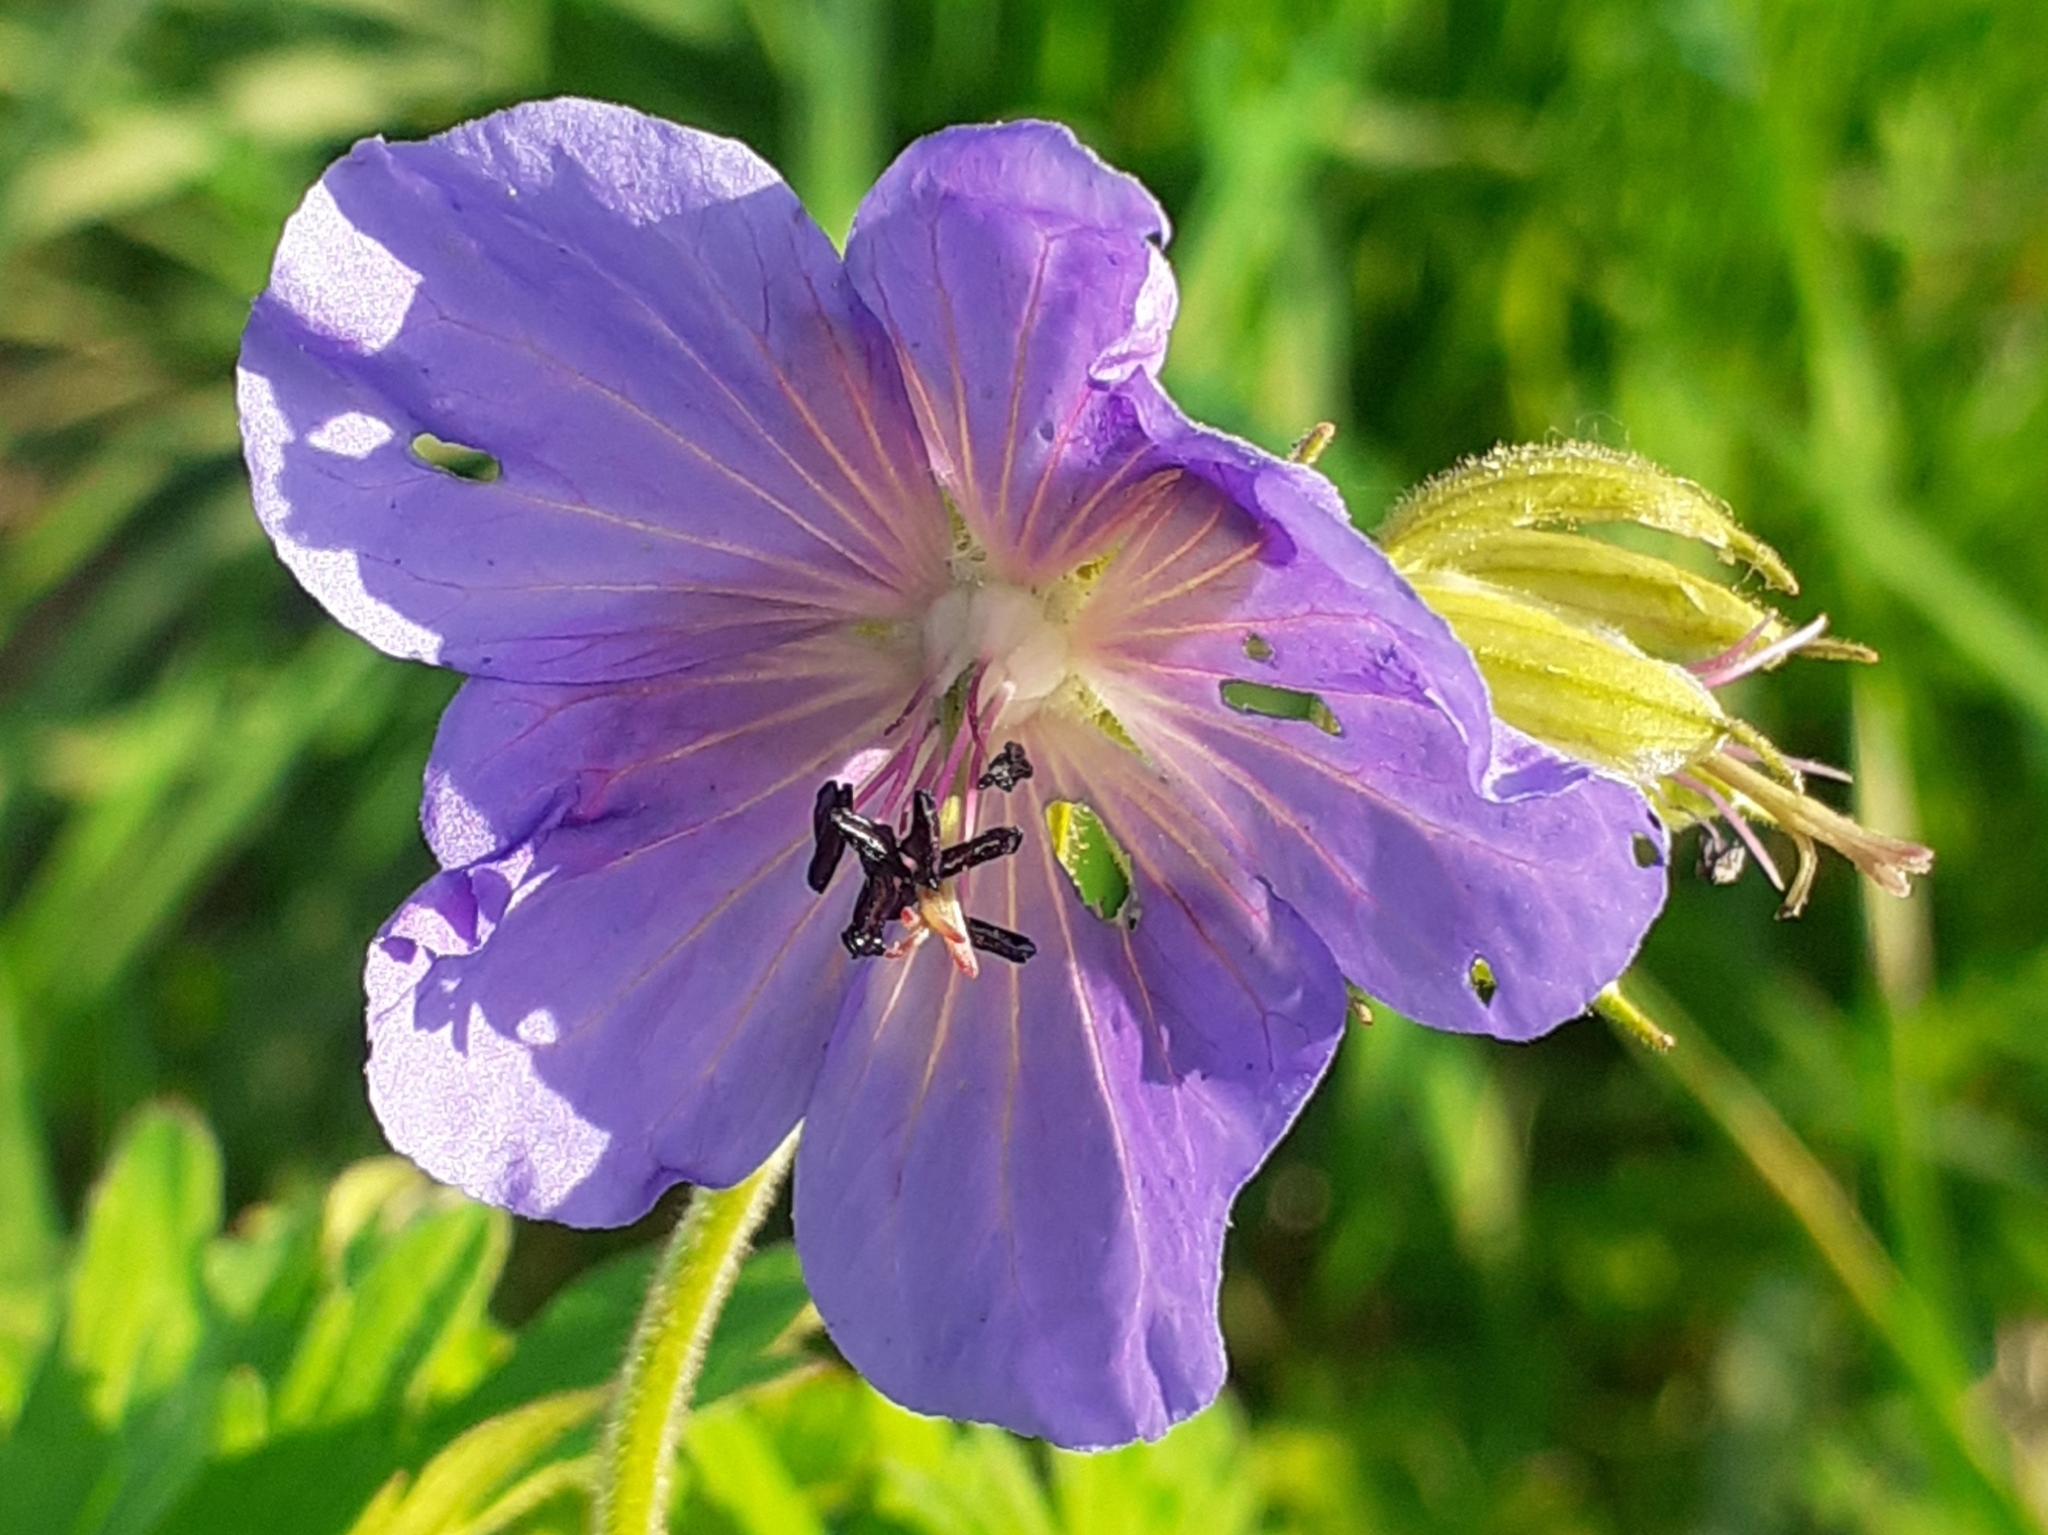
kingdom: Plantae
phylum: Tracheophyta
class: Magnoliopsida
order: Geraniales
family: Geraniaceae
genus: Geranium
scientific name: Geranium pratense
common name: Meadow crane's-bill
